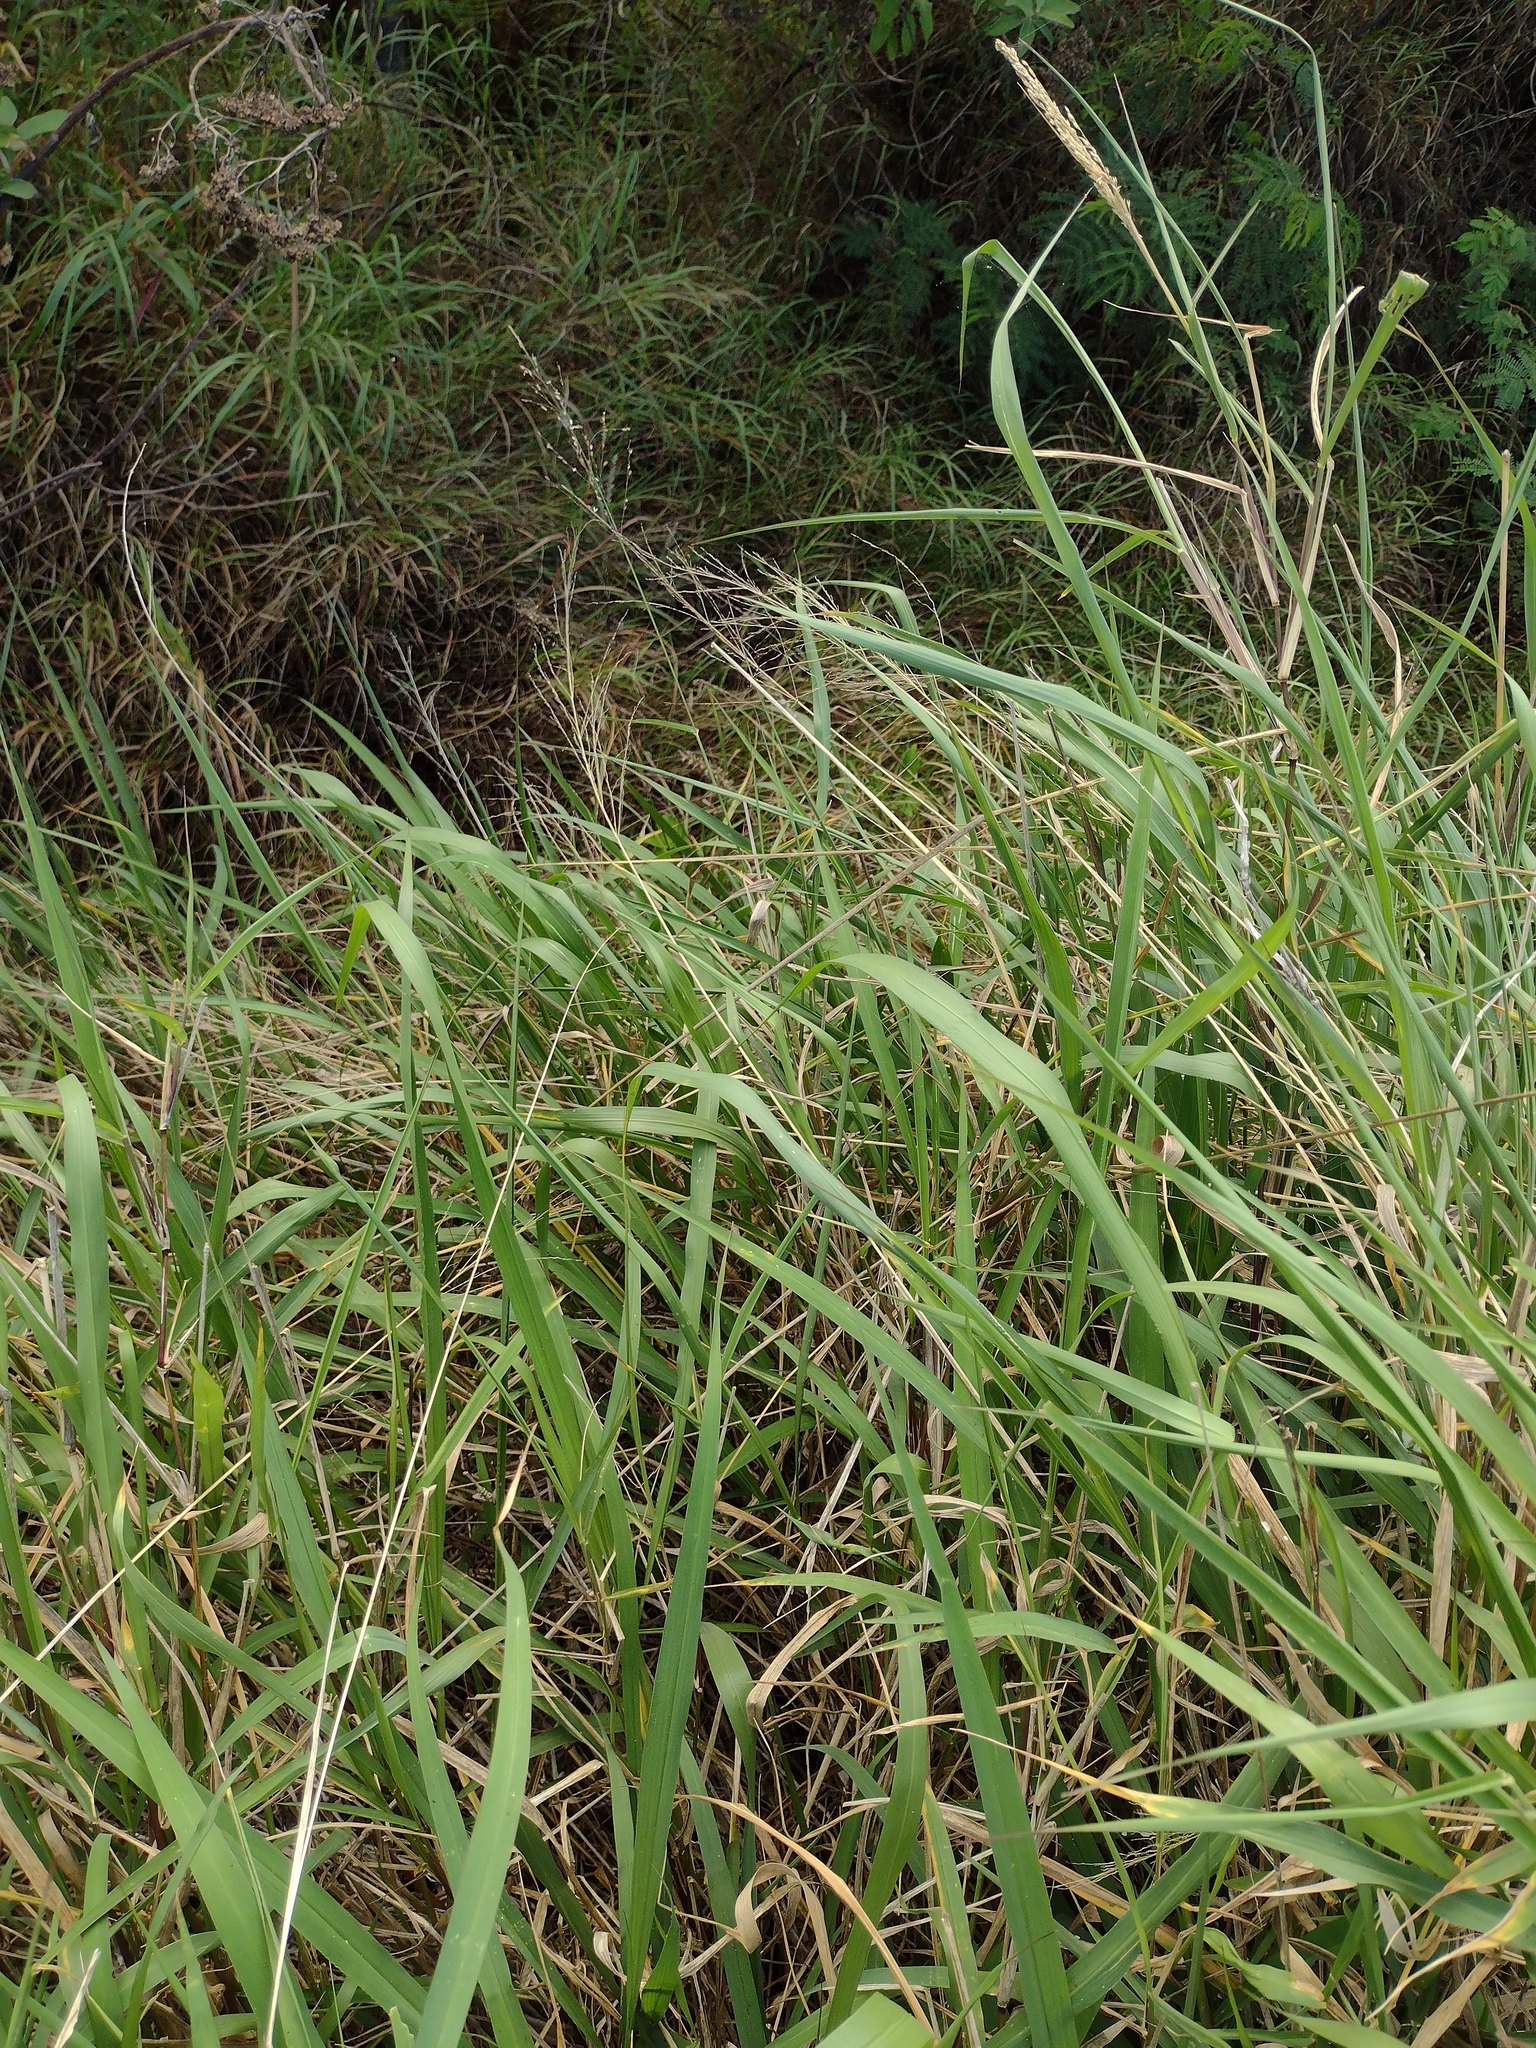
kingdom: Plantae
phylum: Tracheophyta
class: Liliopsida
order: Poales
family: Poaceae
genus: Megathyrsus
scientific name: Megathyrsus maximus
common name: Guineagrass
